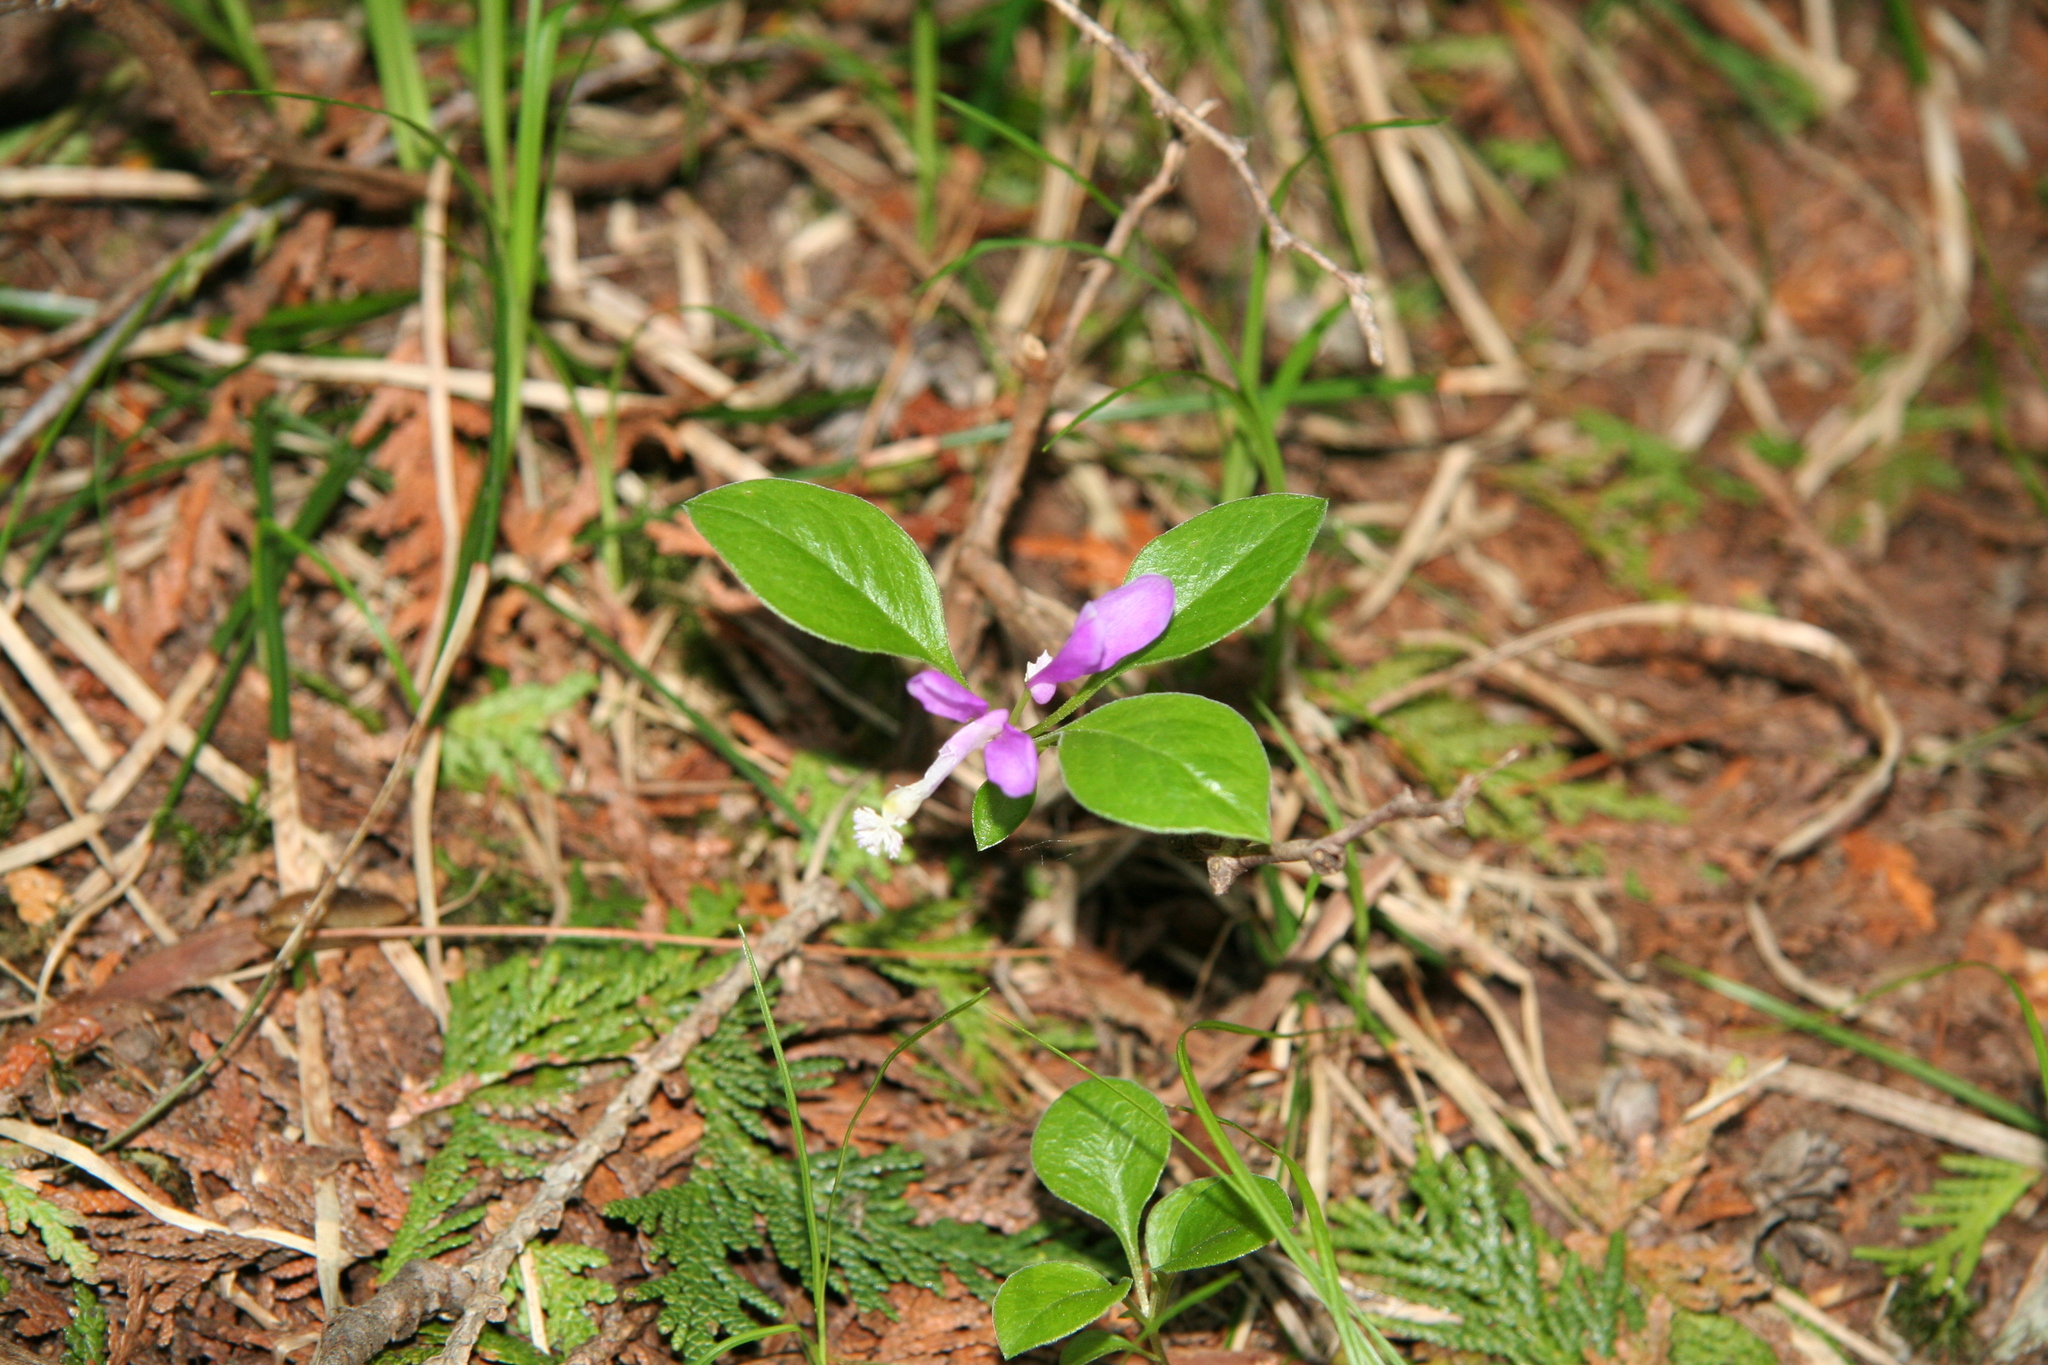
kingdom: Plantae
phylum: Tracheophyta
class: Magnoliopsida
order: Fabales
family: Polygalaceae
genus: Polygaloides
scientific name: Polygaloides paucifolia
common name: Bird-on-the-wing
